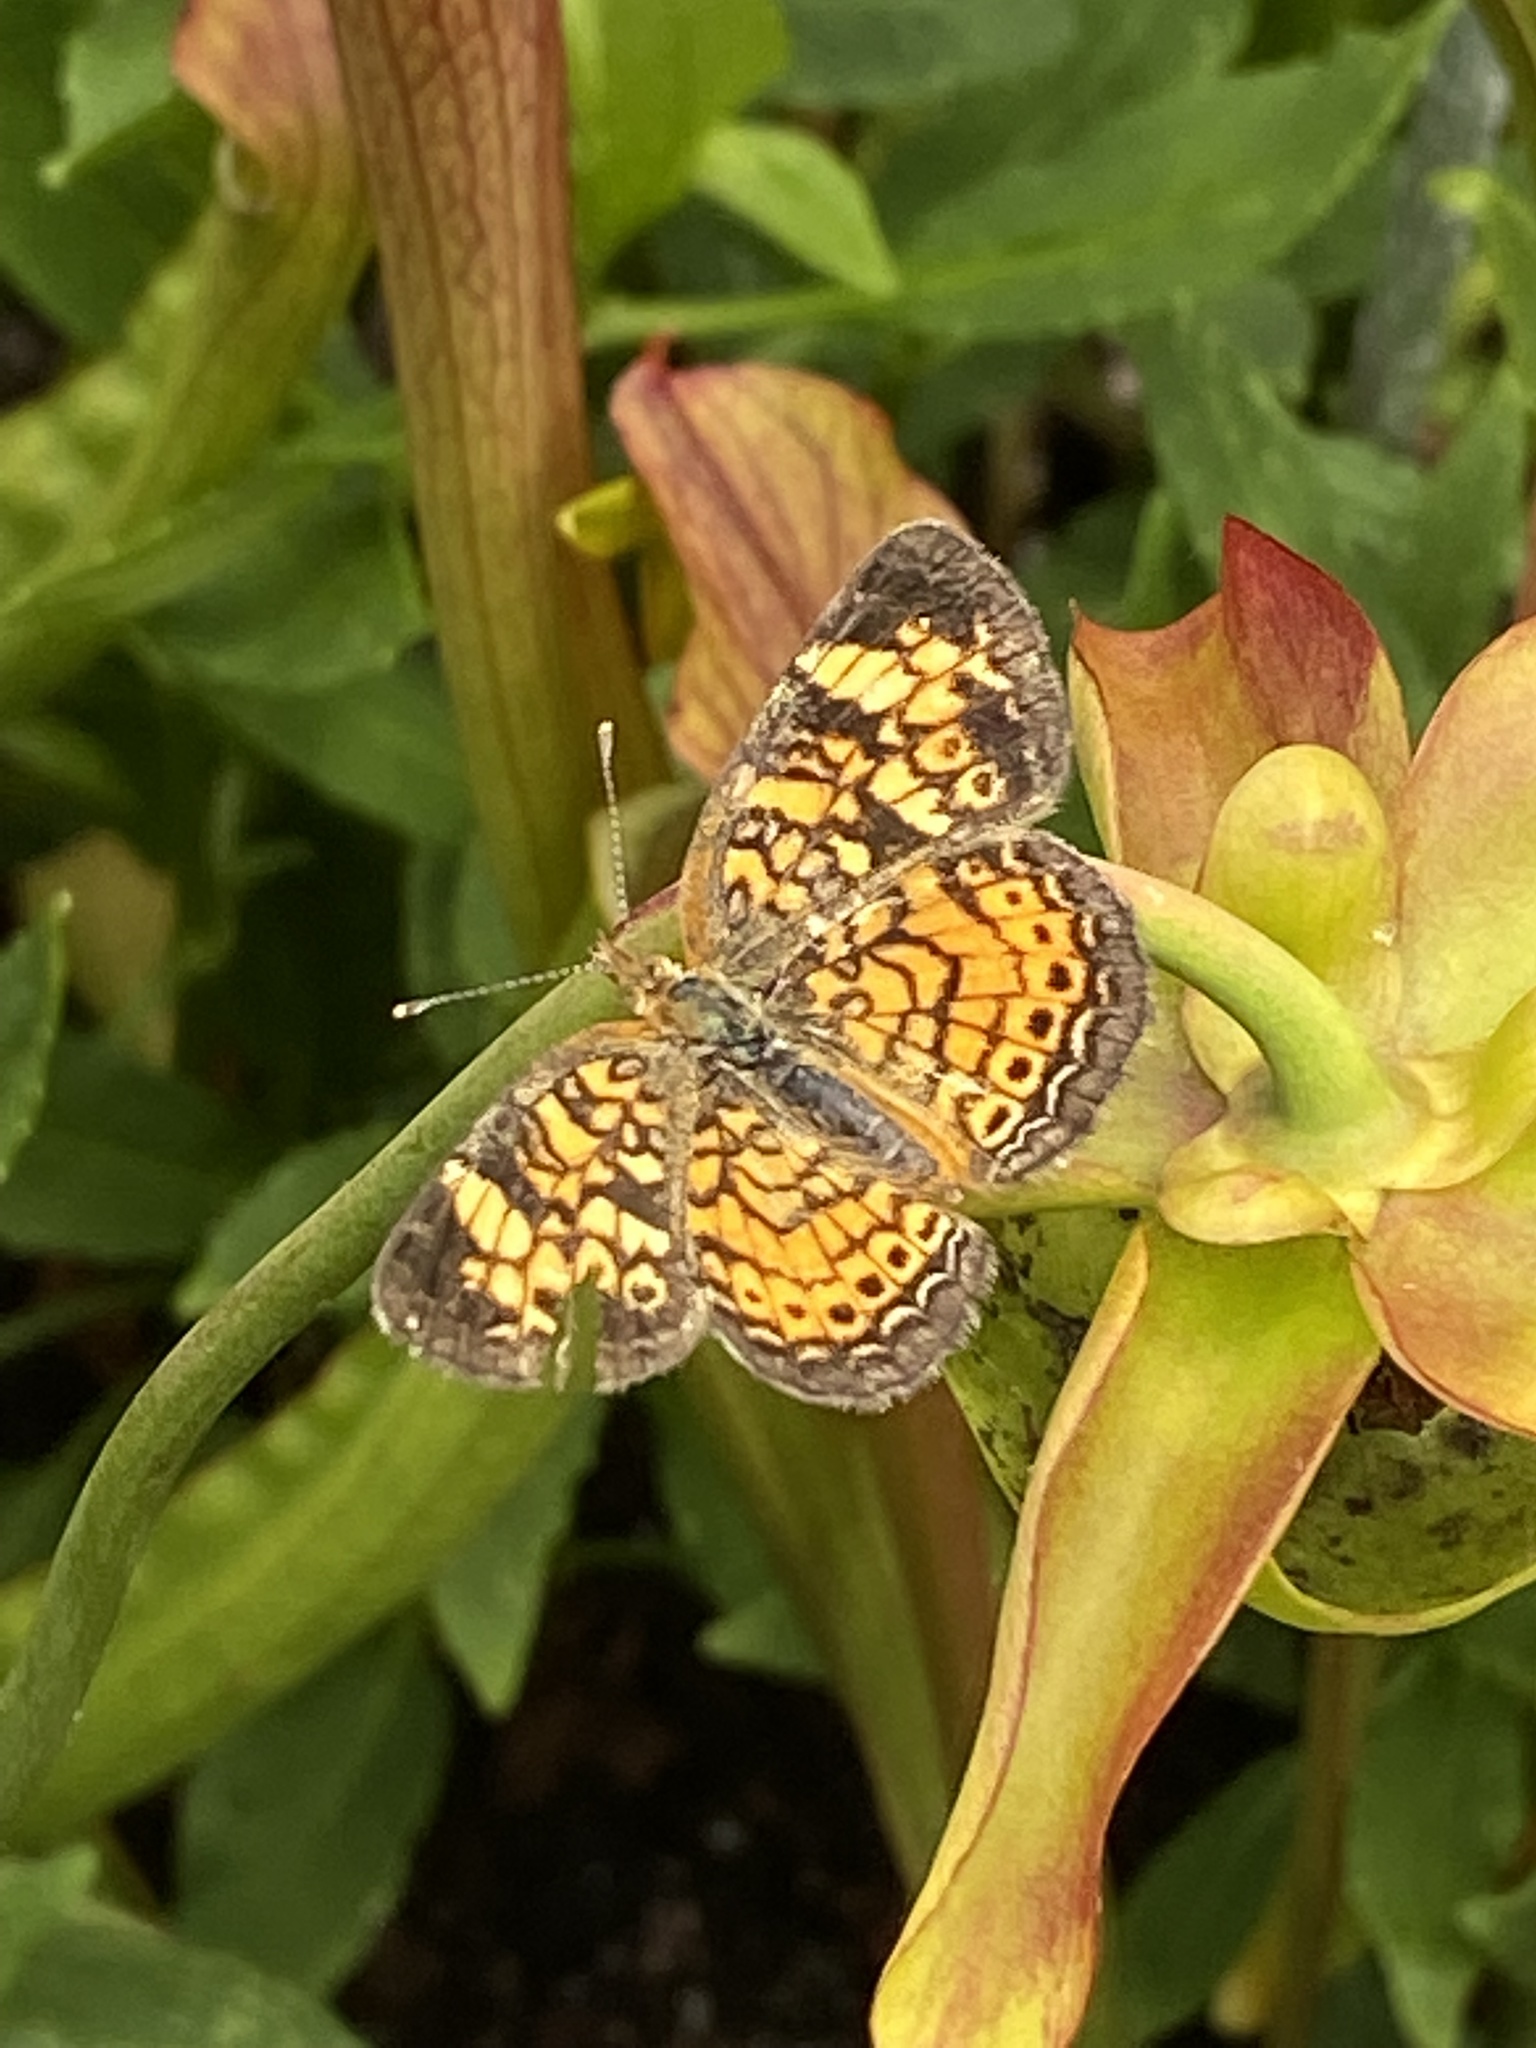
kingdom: Animalia
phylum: Arthropoda
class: Insecta
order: Lepidoptera
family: Nymphalidae
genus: Phyciodes
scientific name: Phyciodes tharos
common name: Pearl crescent
